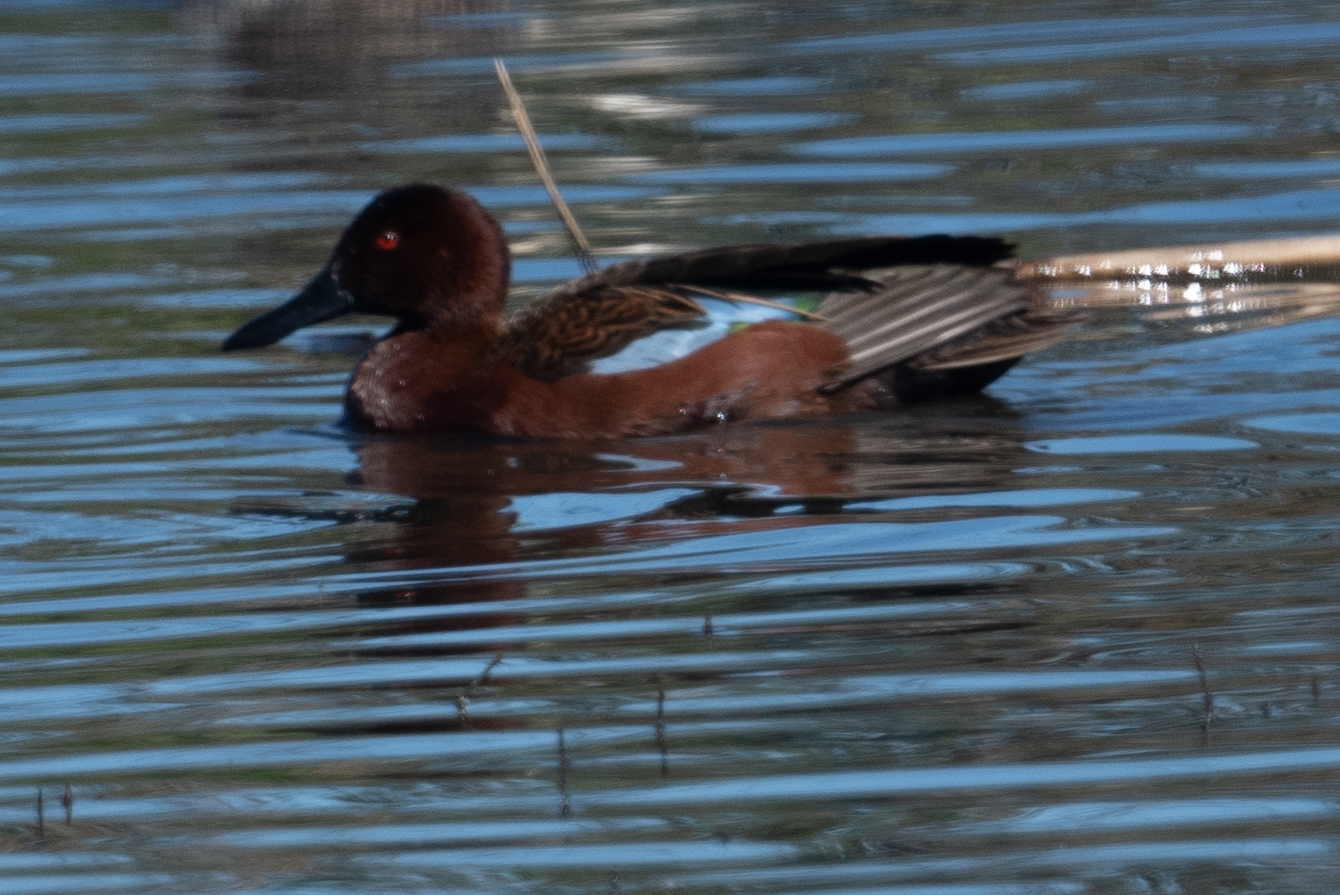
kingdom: Animalia
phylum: Chordata
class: Aves
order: Anseriformes
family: Anatidae
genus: Spatula
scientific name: Spatula cyanoptera
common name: Cinnamon teal
